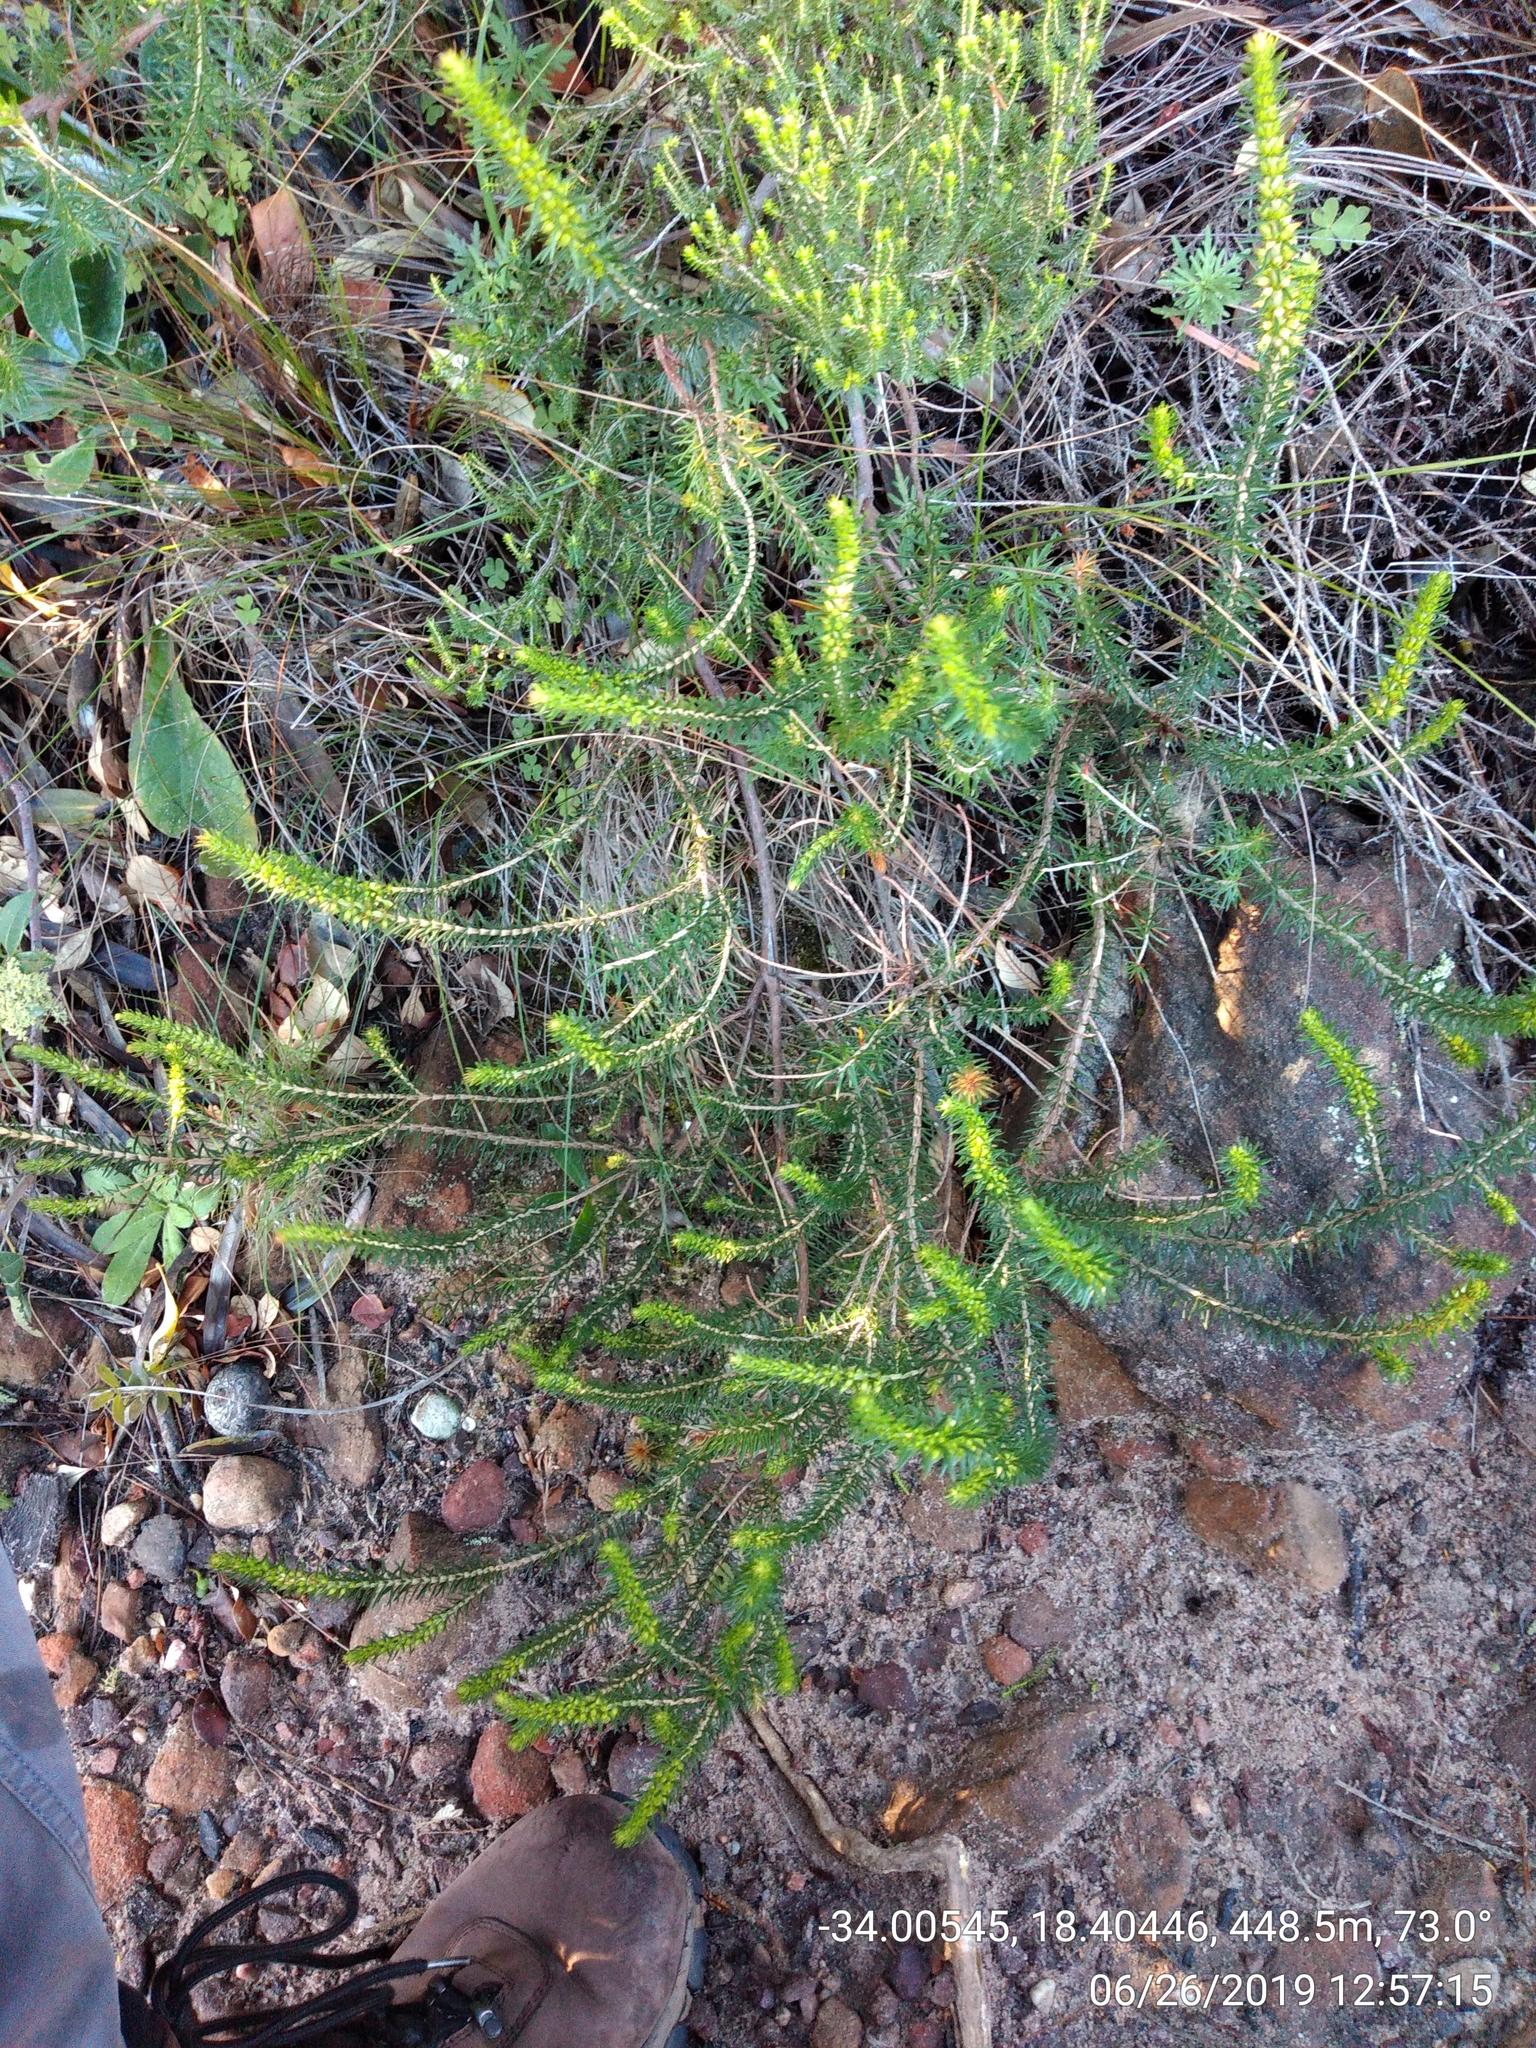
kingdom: Plantae
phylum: Tracheophyta
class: Magnoliopsida
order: Ericales
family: Ericaceae
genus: Erica
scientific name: Erica abietina
